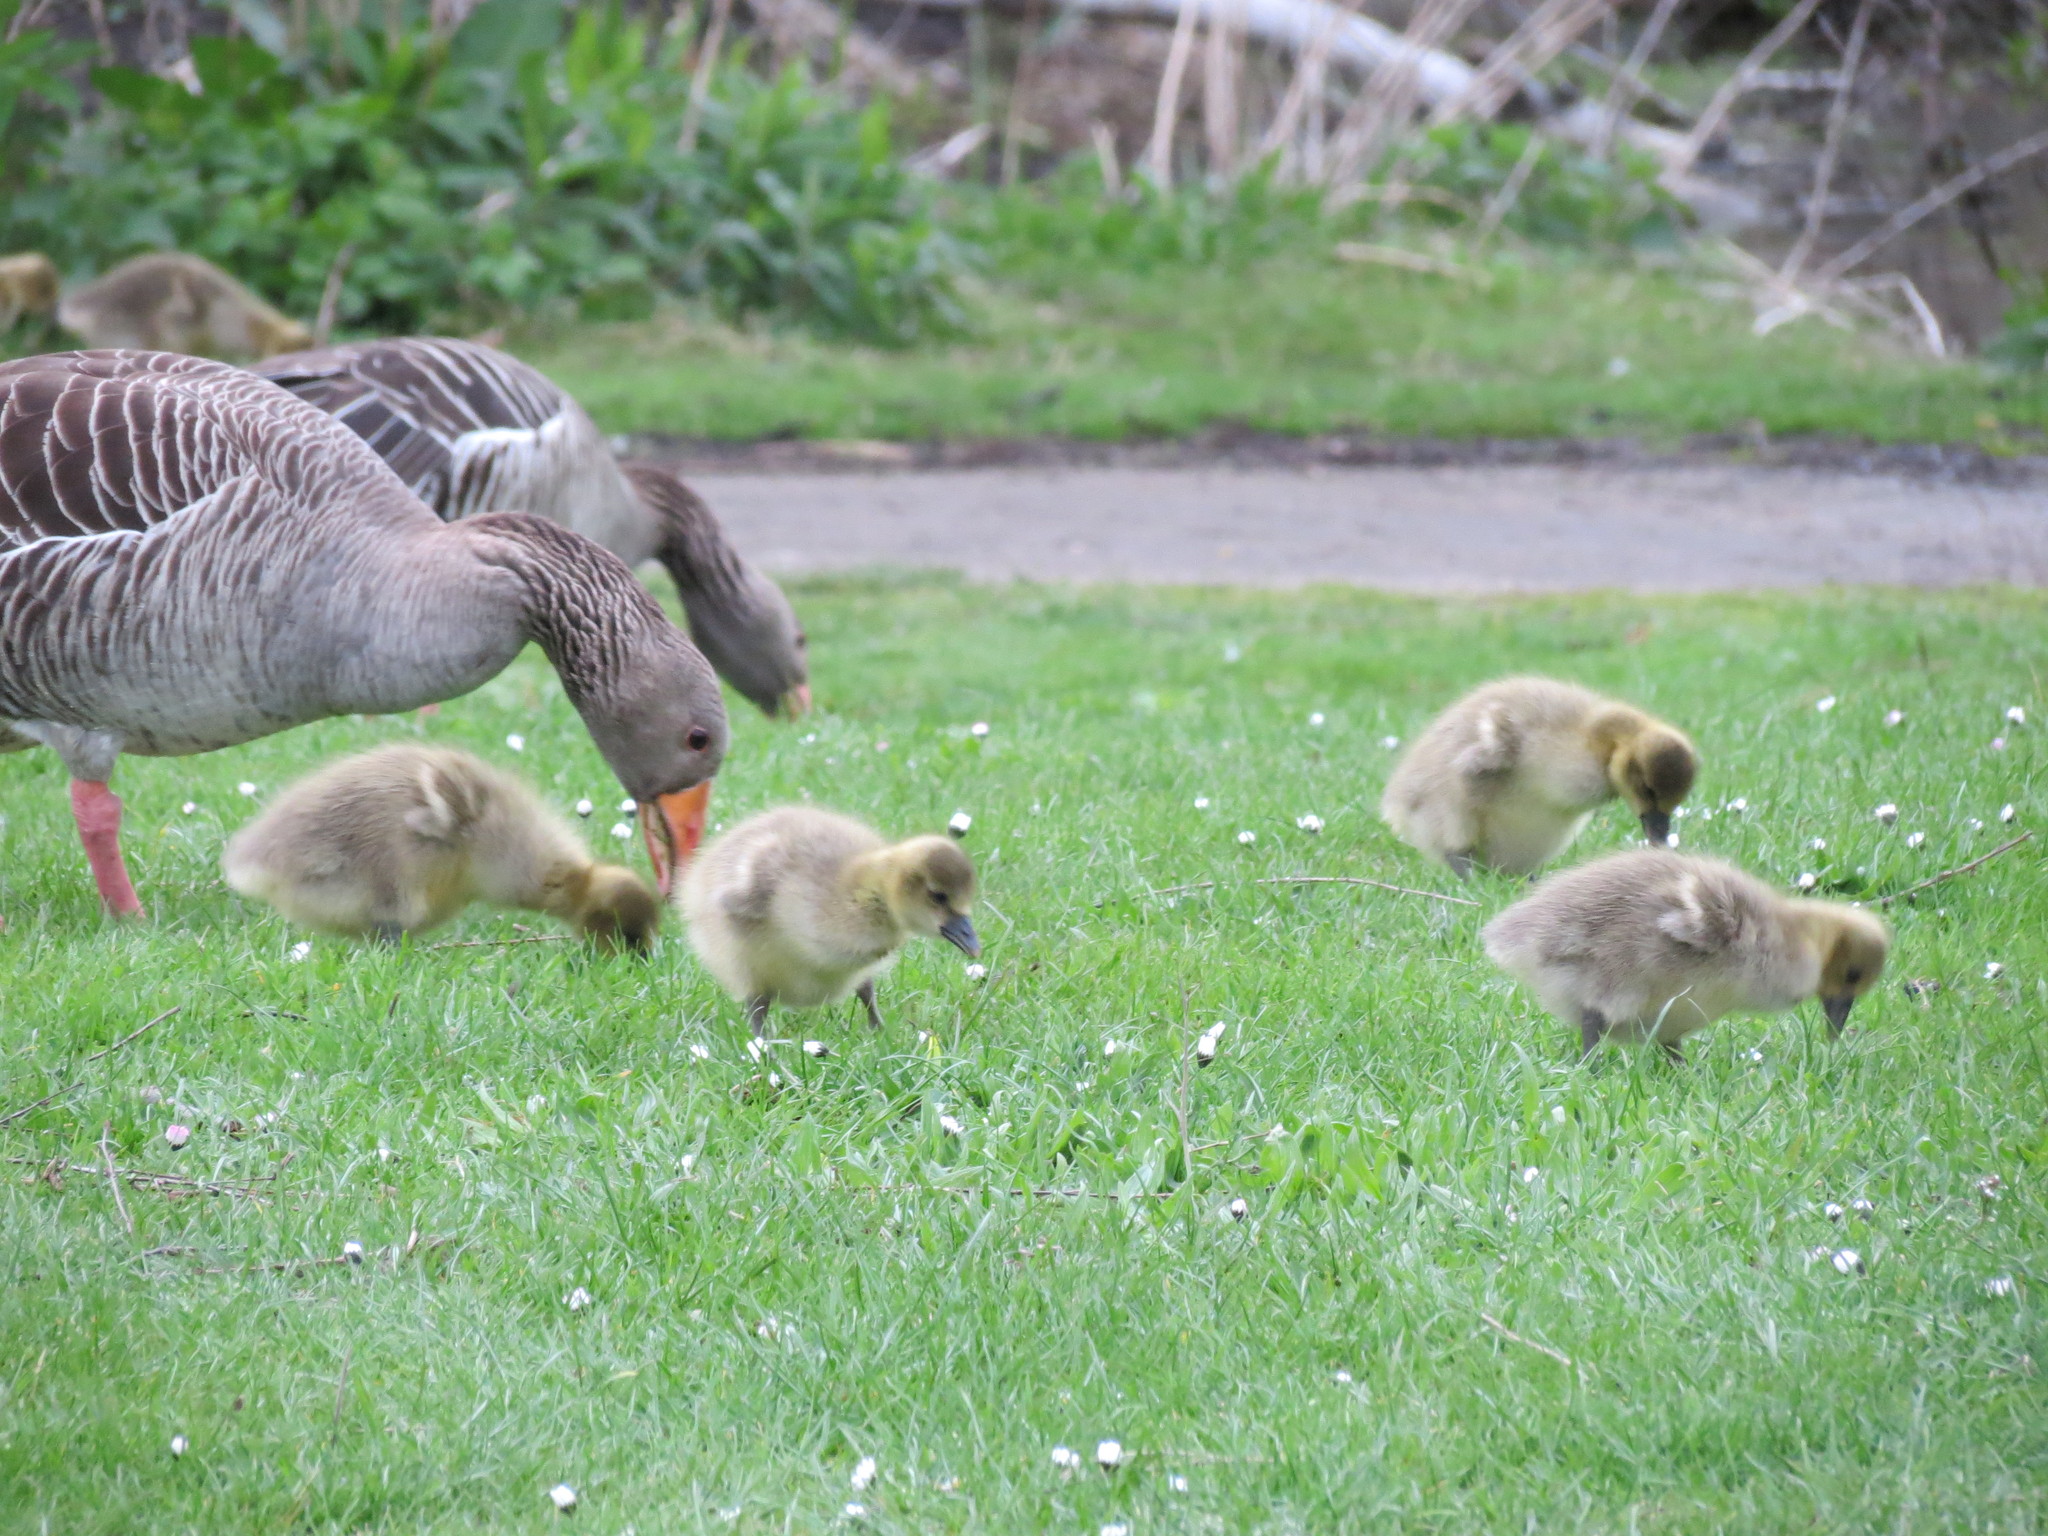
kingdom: Animalia
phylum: Chordata
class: Aves
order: Anseriformes
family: Anatidae
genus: Anser
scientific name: Anser anser
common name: Greylag goose
